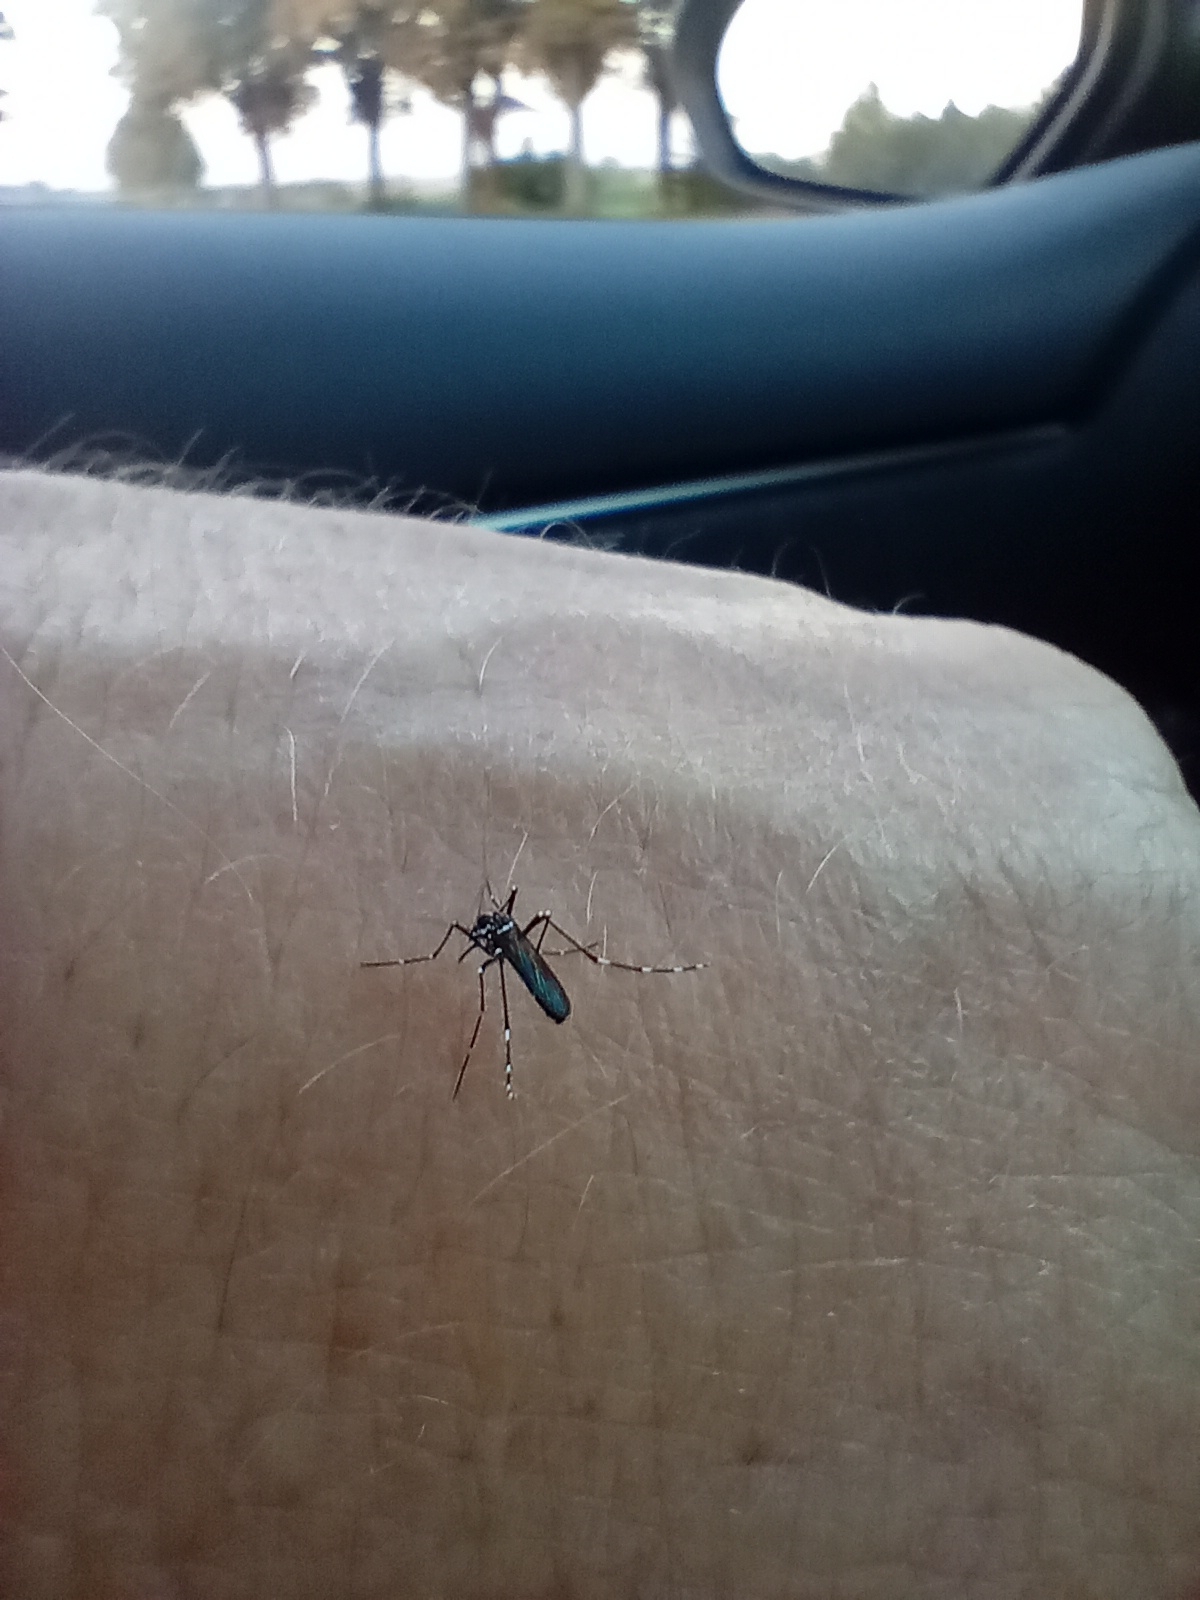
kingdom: Animalia
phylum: Arthropoda
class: Insecta
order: Diptera
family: Culicidae
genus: Aedes
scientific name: Aedes albopictus
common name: Tiger mosquito
